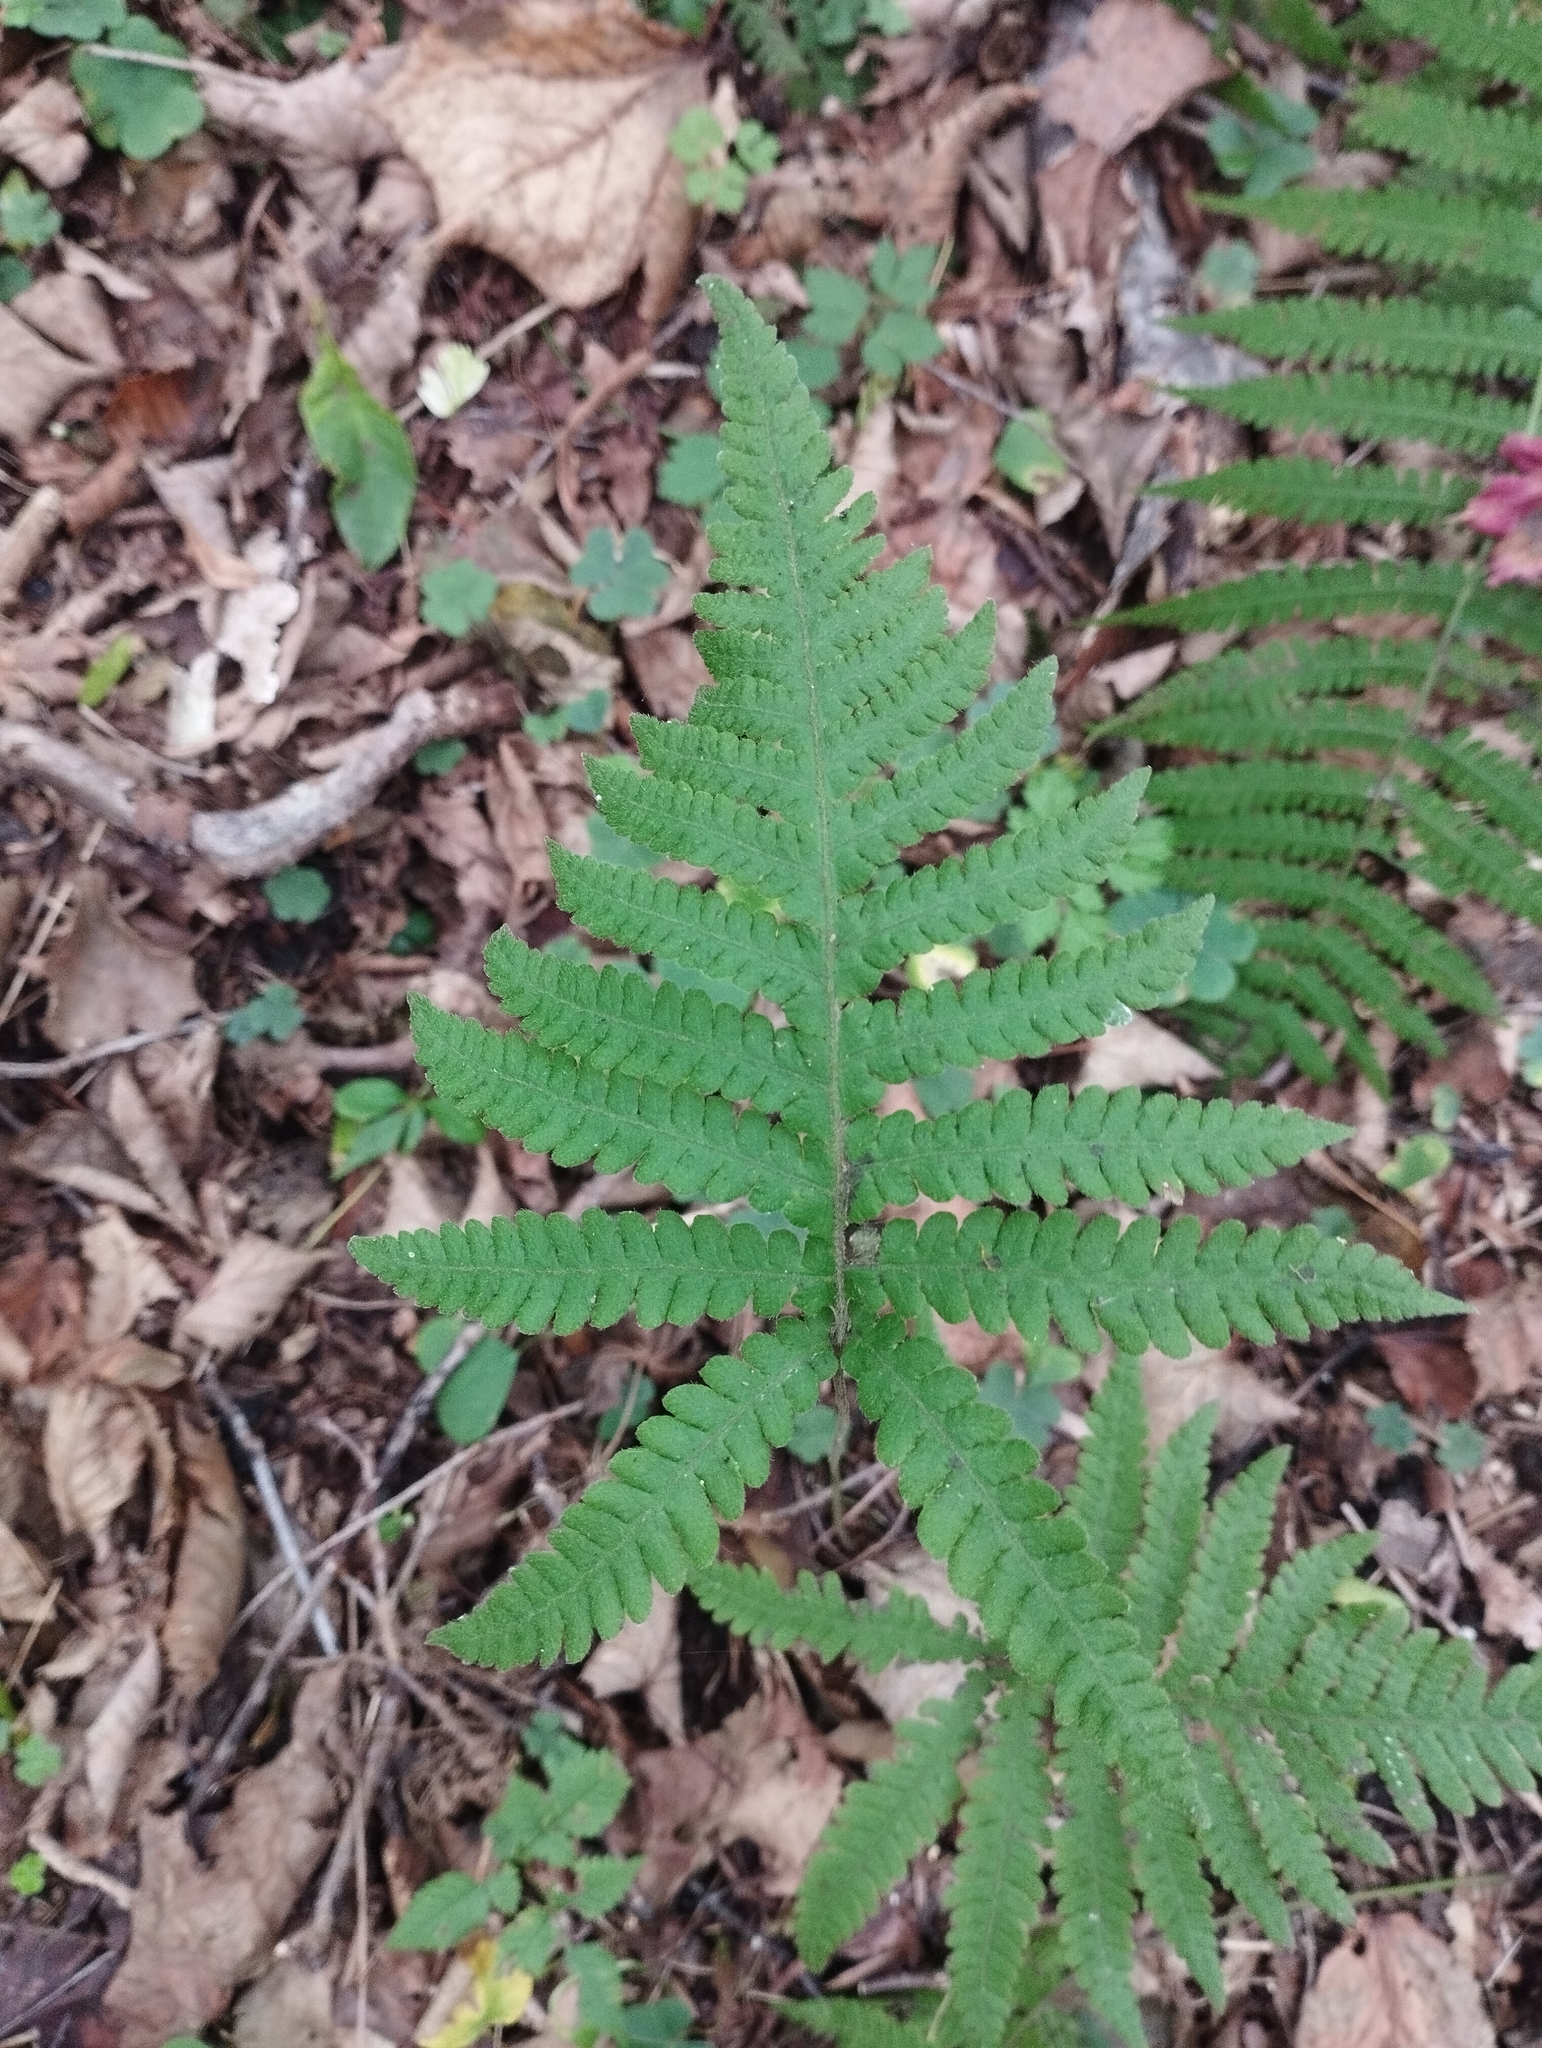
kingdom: Plantae
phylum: Tracheophyta
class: Polypodiopsida
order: Polypodiales
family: Thelypteridaceae
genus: Phegopteris
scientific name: Phegopteris connectilis
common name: Beech fern
